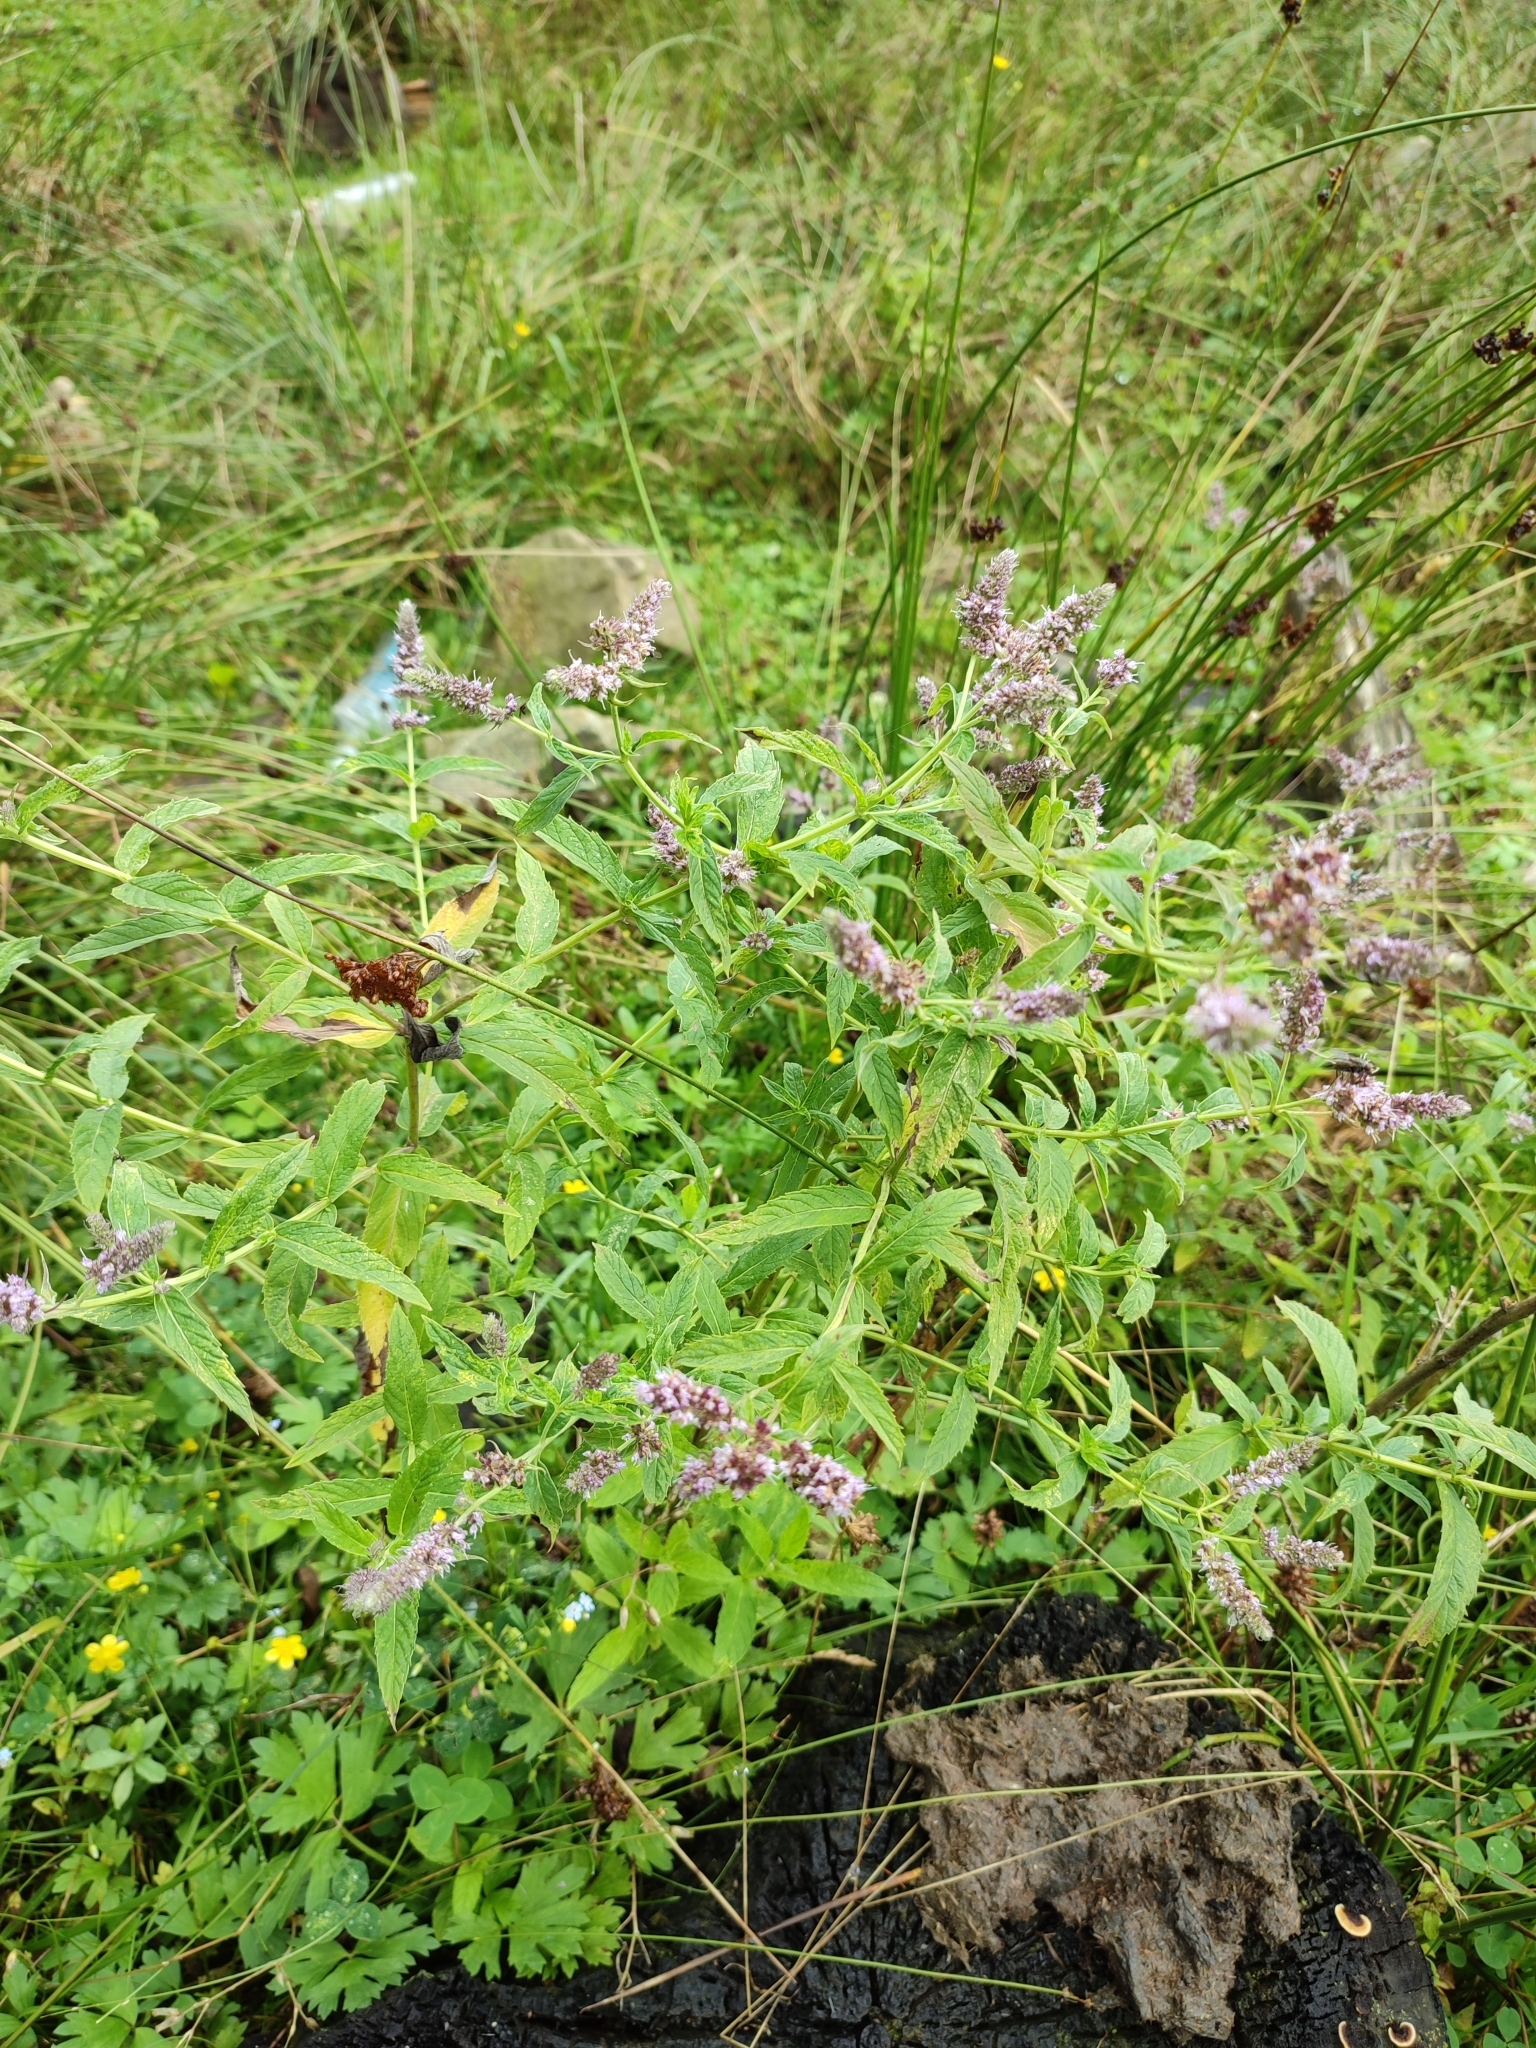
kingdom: Plantae
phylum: Tracheophyta
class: Magnoliopsida
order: Lamiales
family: Lamiaceae
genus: Mentha
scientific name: Mentha longifolia
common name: Horse mint
